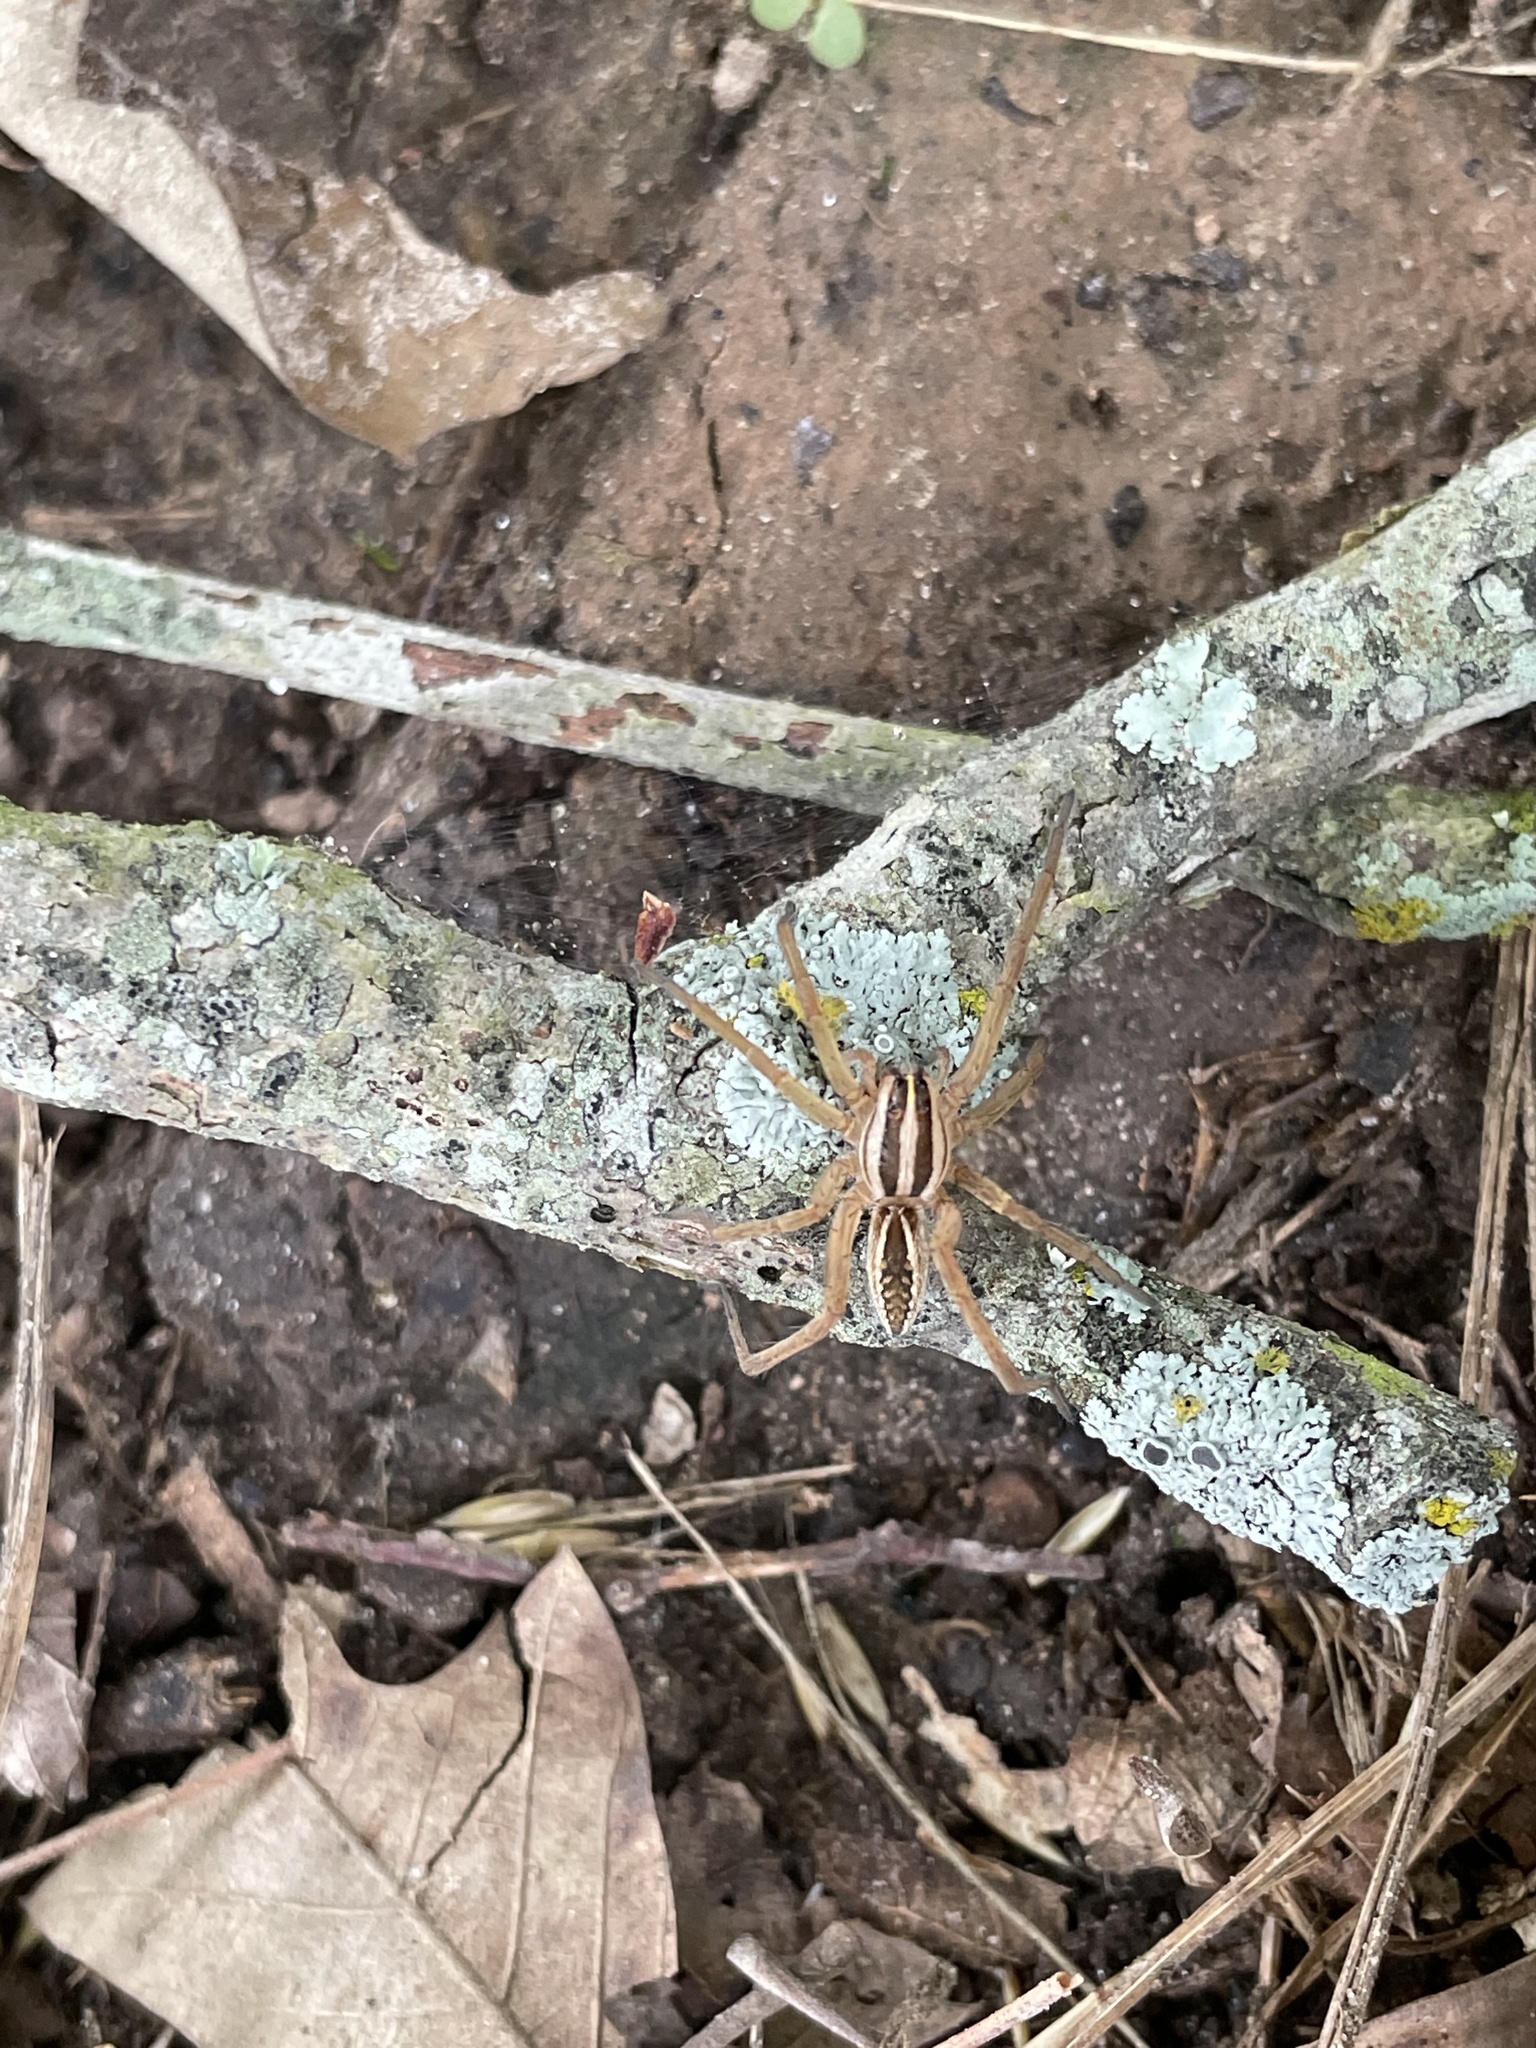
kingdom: Animalia
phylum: Arthropoda
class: Arachnida
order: Araneae
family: Lycosidae
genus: Rabidosa
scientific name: Rabidosa rabida
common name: Rabid wolf spider
